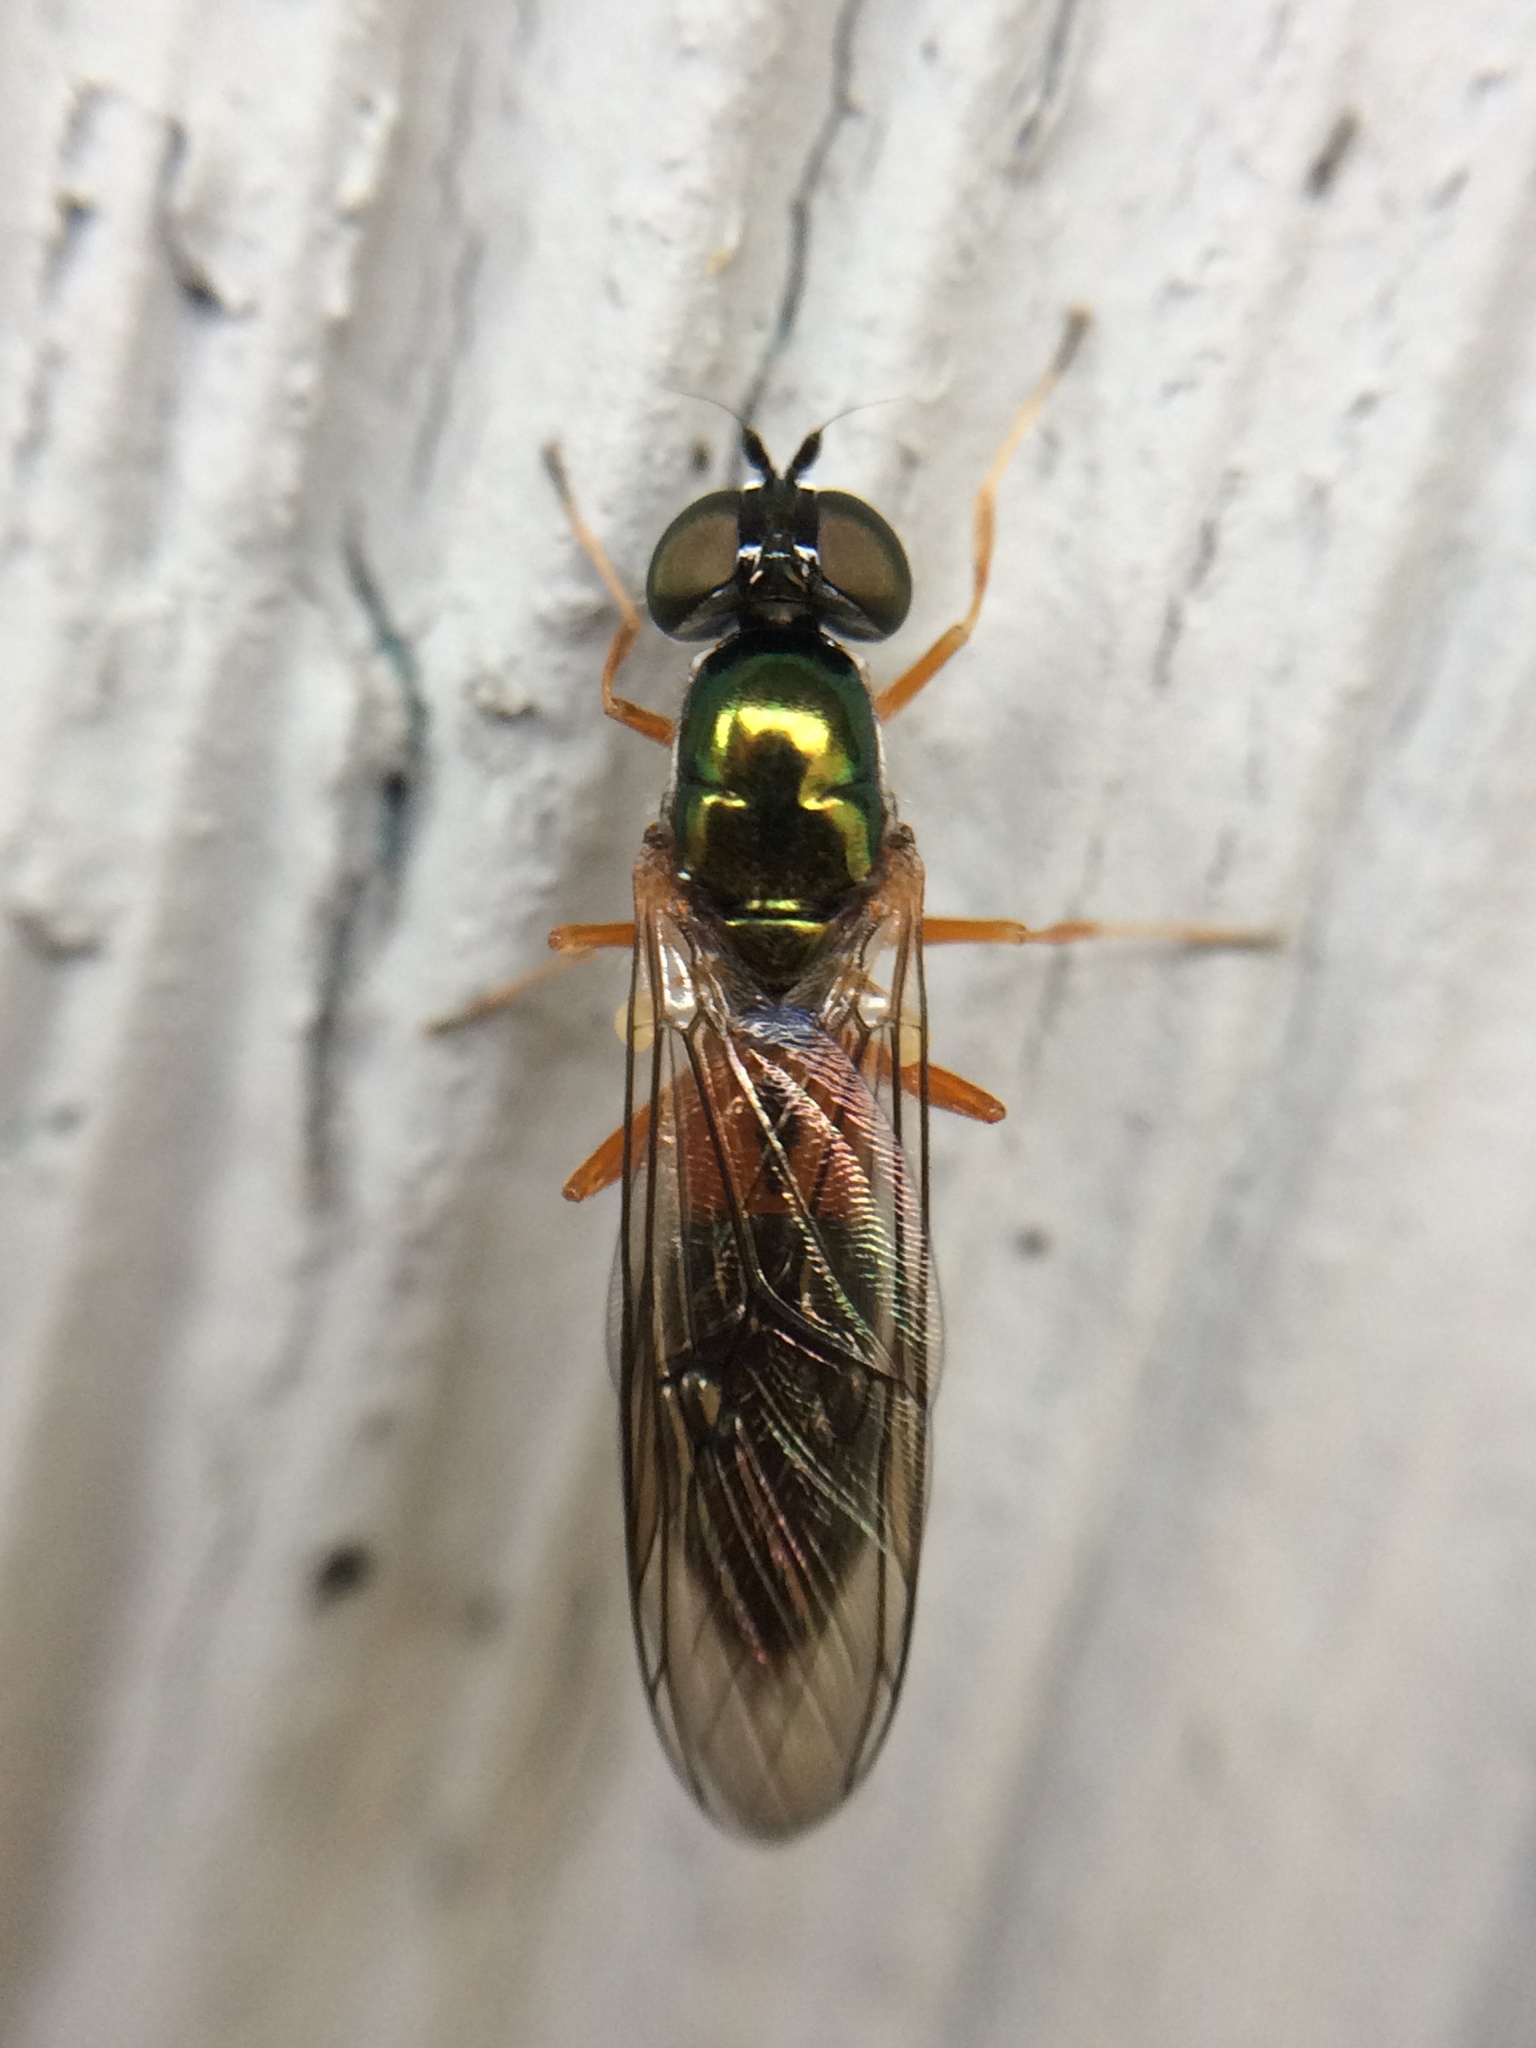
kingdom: Animalia
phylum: Arthropoda
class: Insecta
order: Diptera
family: Stratiomyidae
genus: Sargus
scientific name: Sargus bipunctatus
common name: Twin-spot centurion
